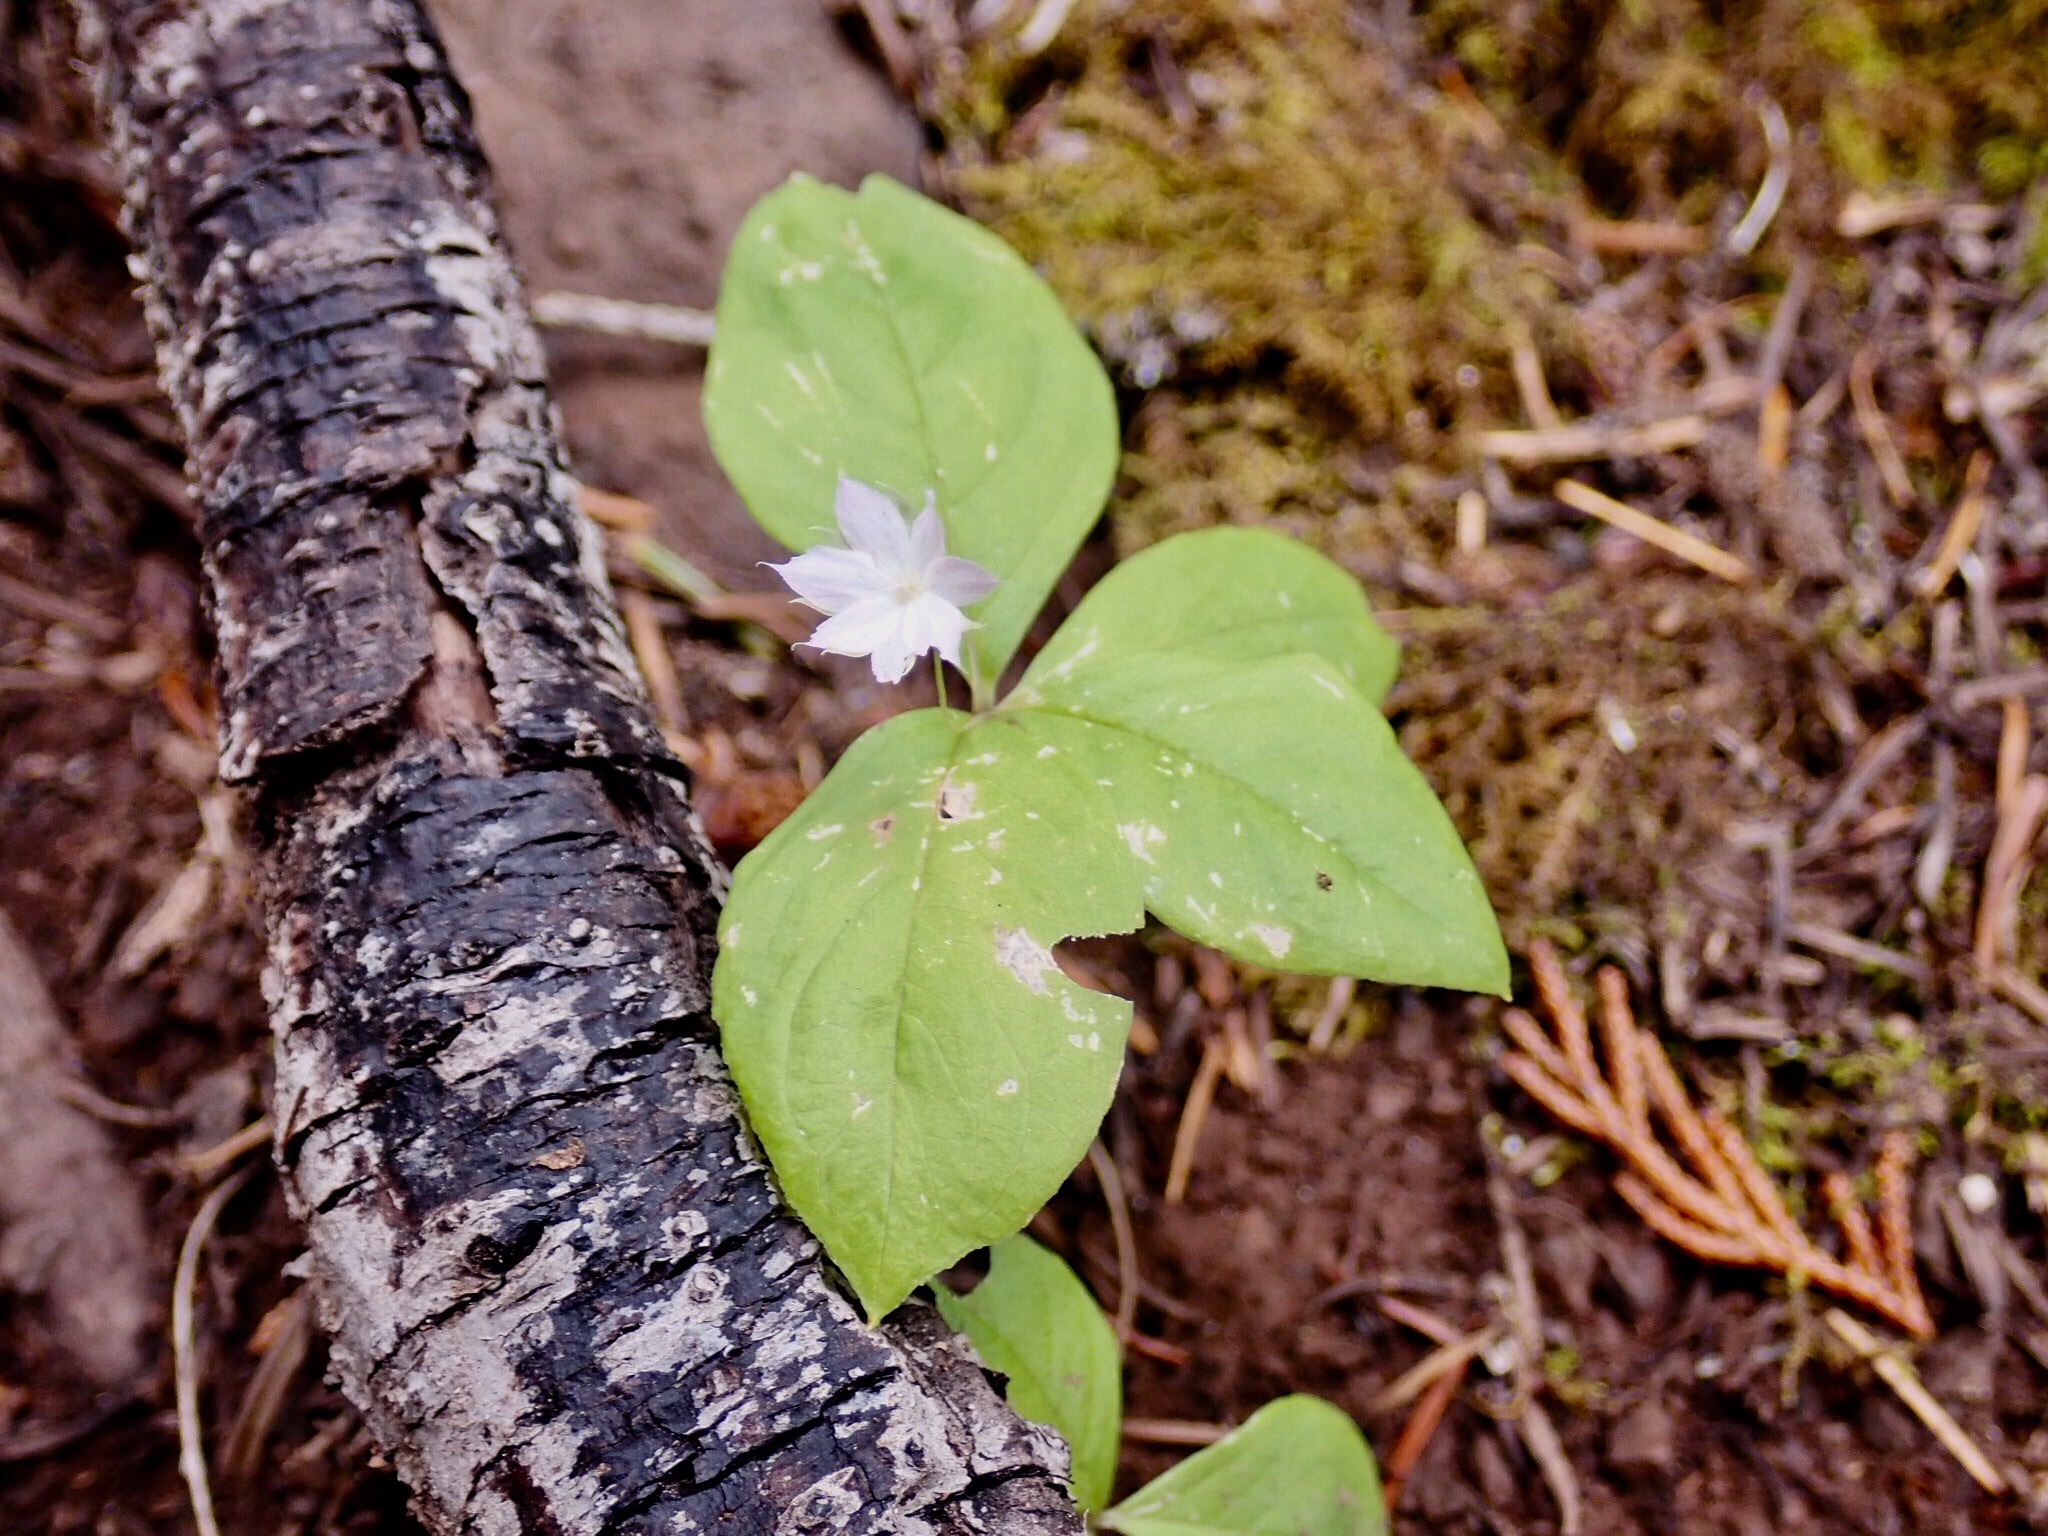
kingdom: Plantae
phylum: Tracheophyta
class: Magnoliopsida
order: Ericales
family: Primulaceae
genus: Lysimachia
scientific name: Lysimachia latifolia
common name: Pacific starflower
